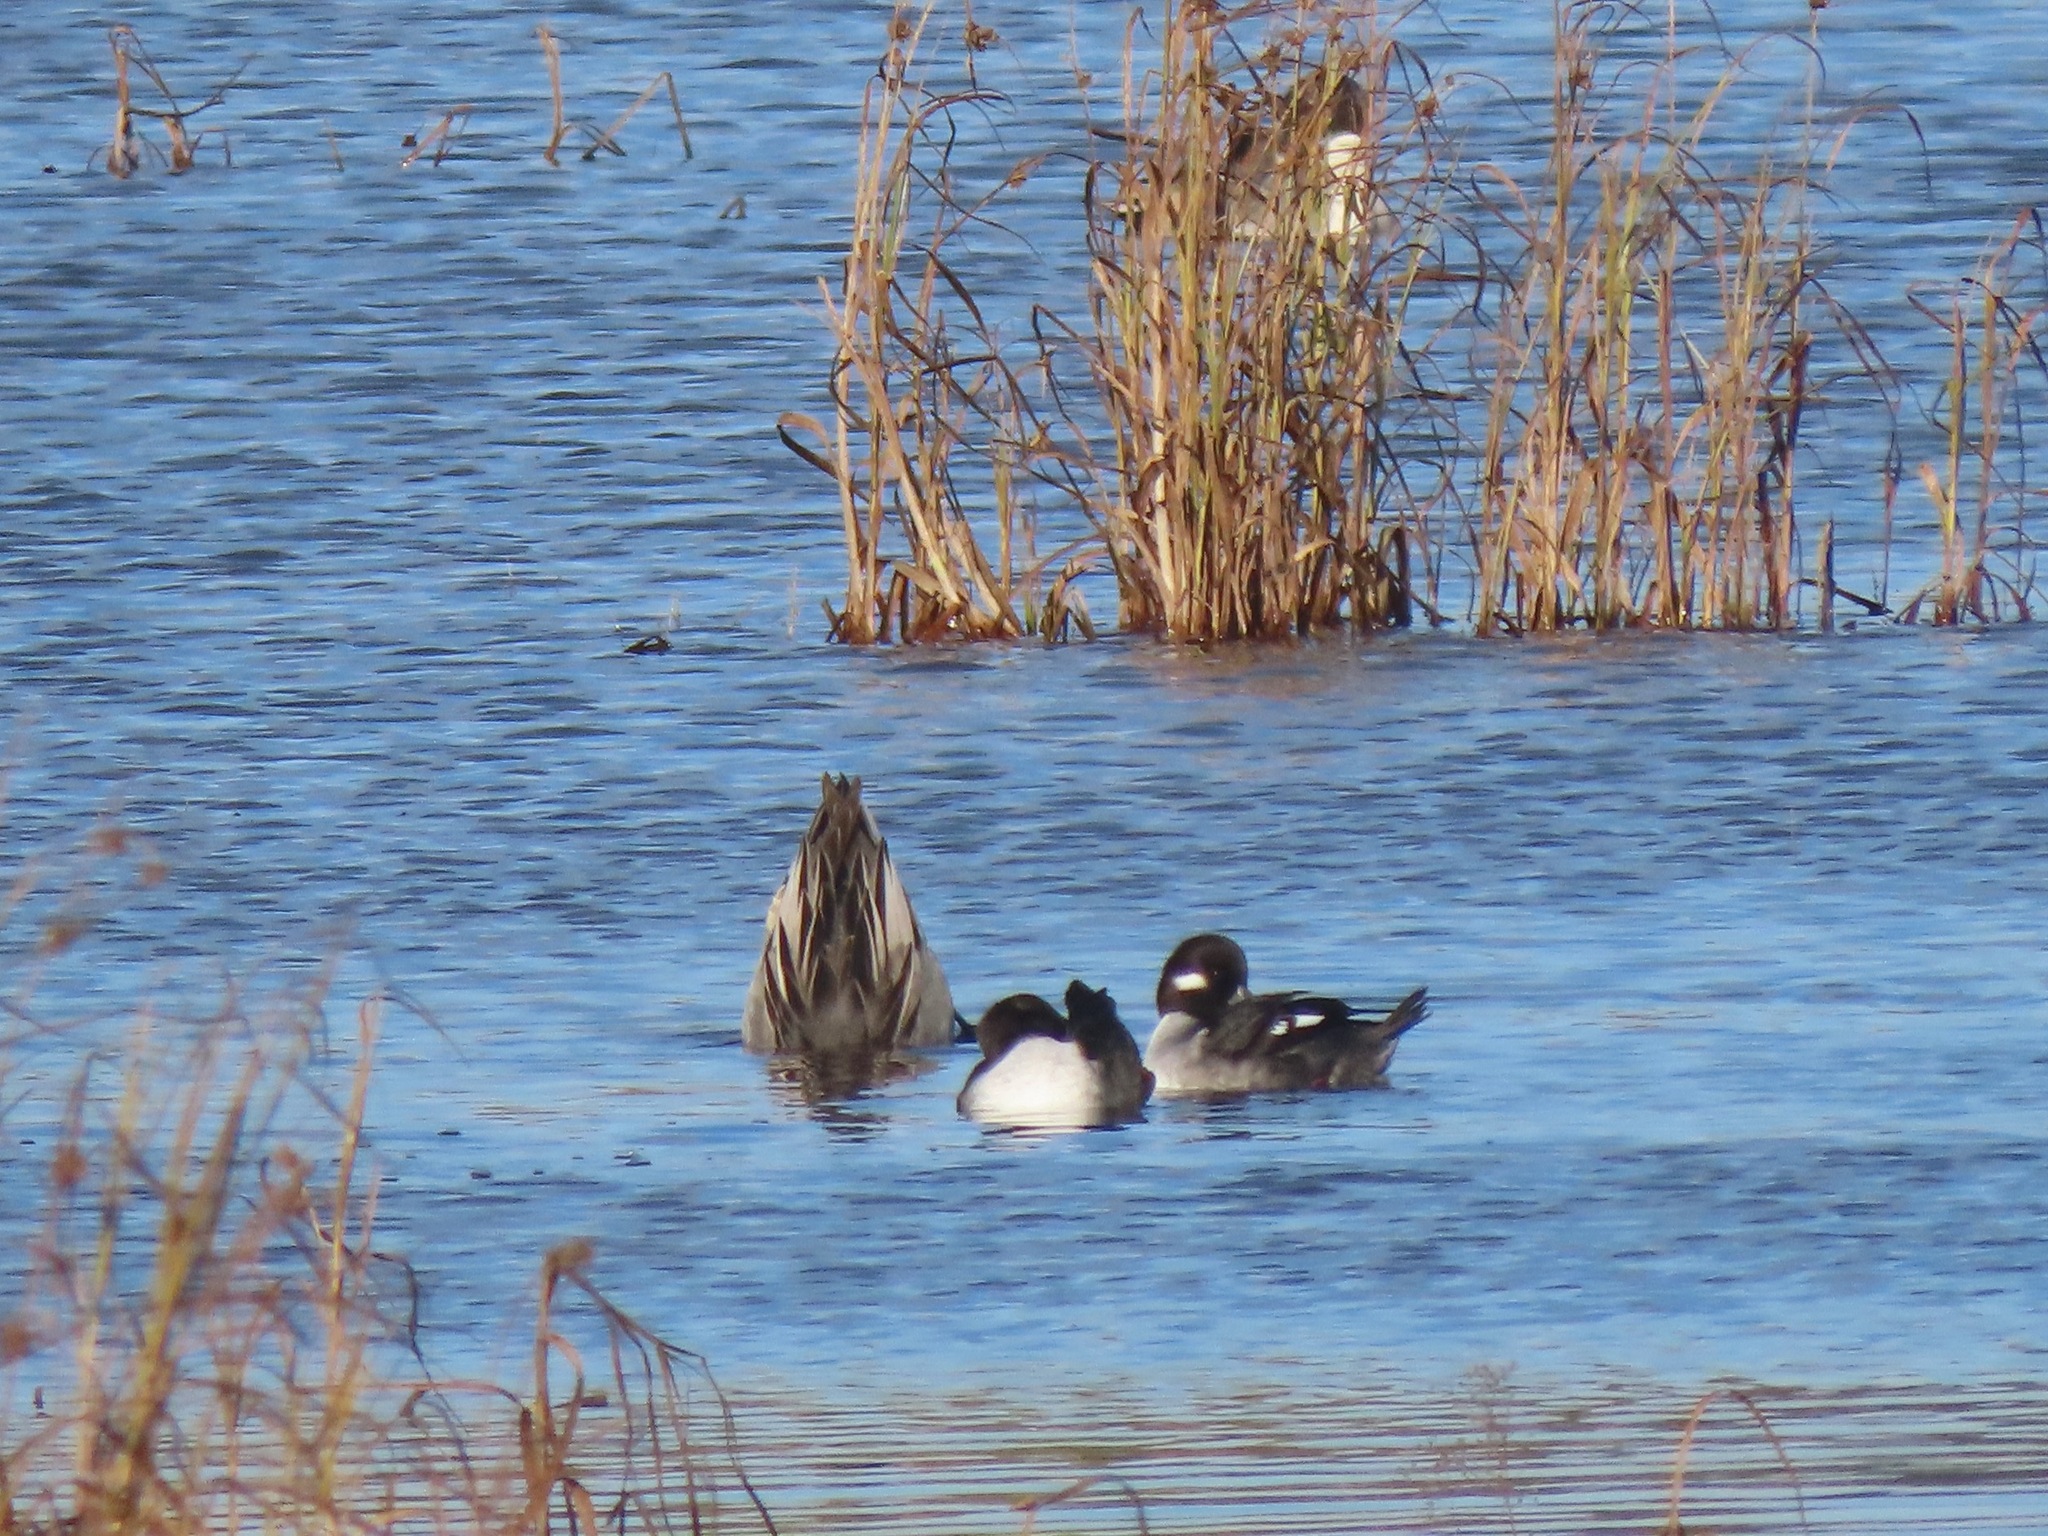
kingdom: Animalia
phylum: Chordata
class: Aves
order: Anseriformes
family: Anatidae
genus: Bucephala
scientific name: Bucephala albeola
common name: Bufflehead
